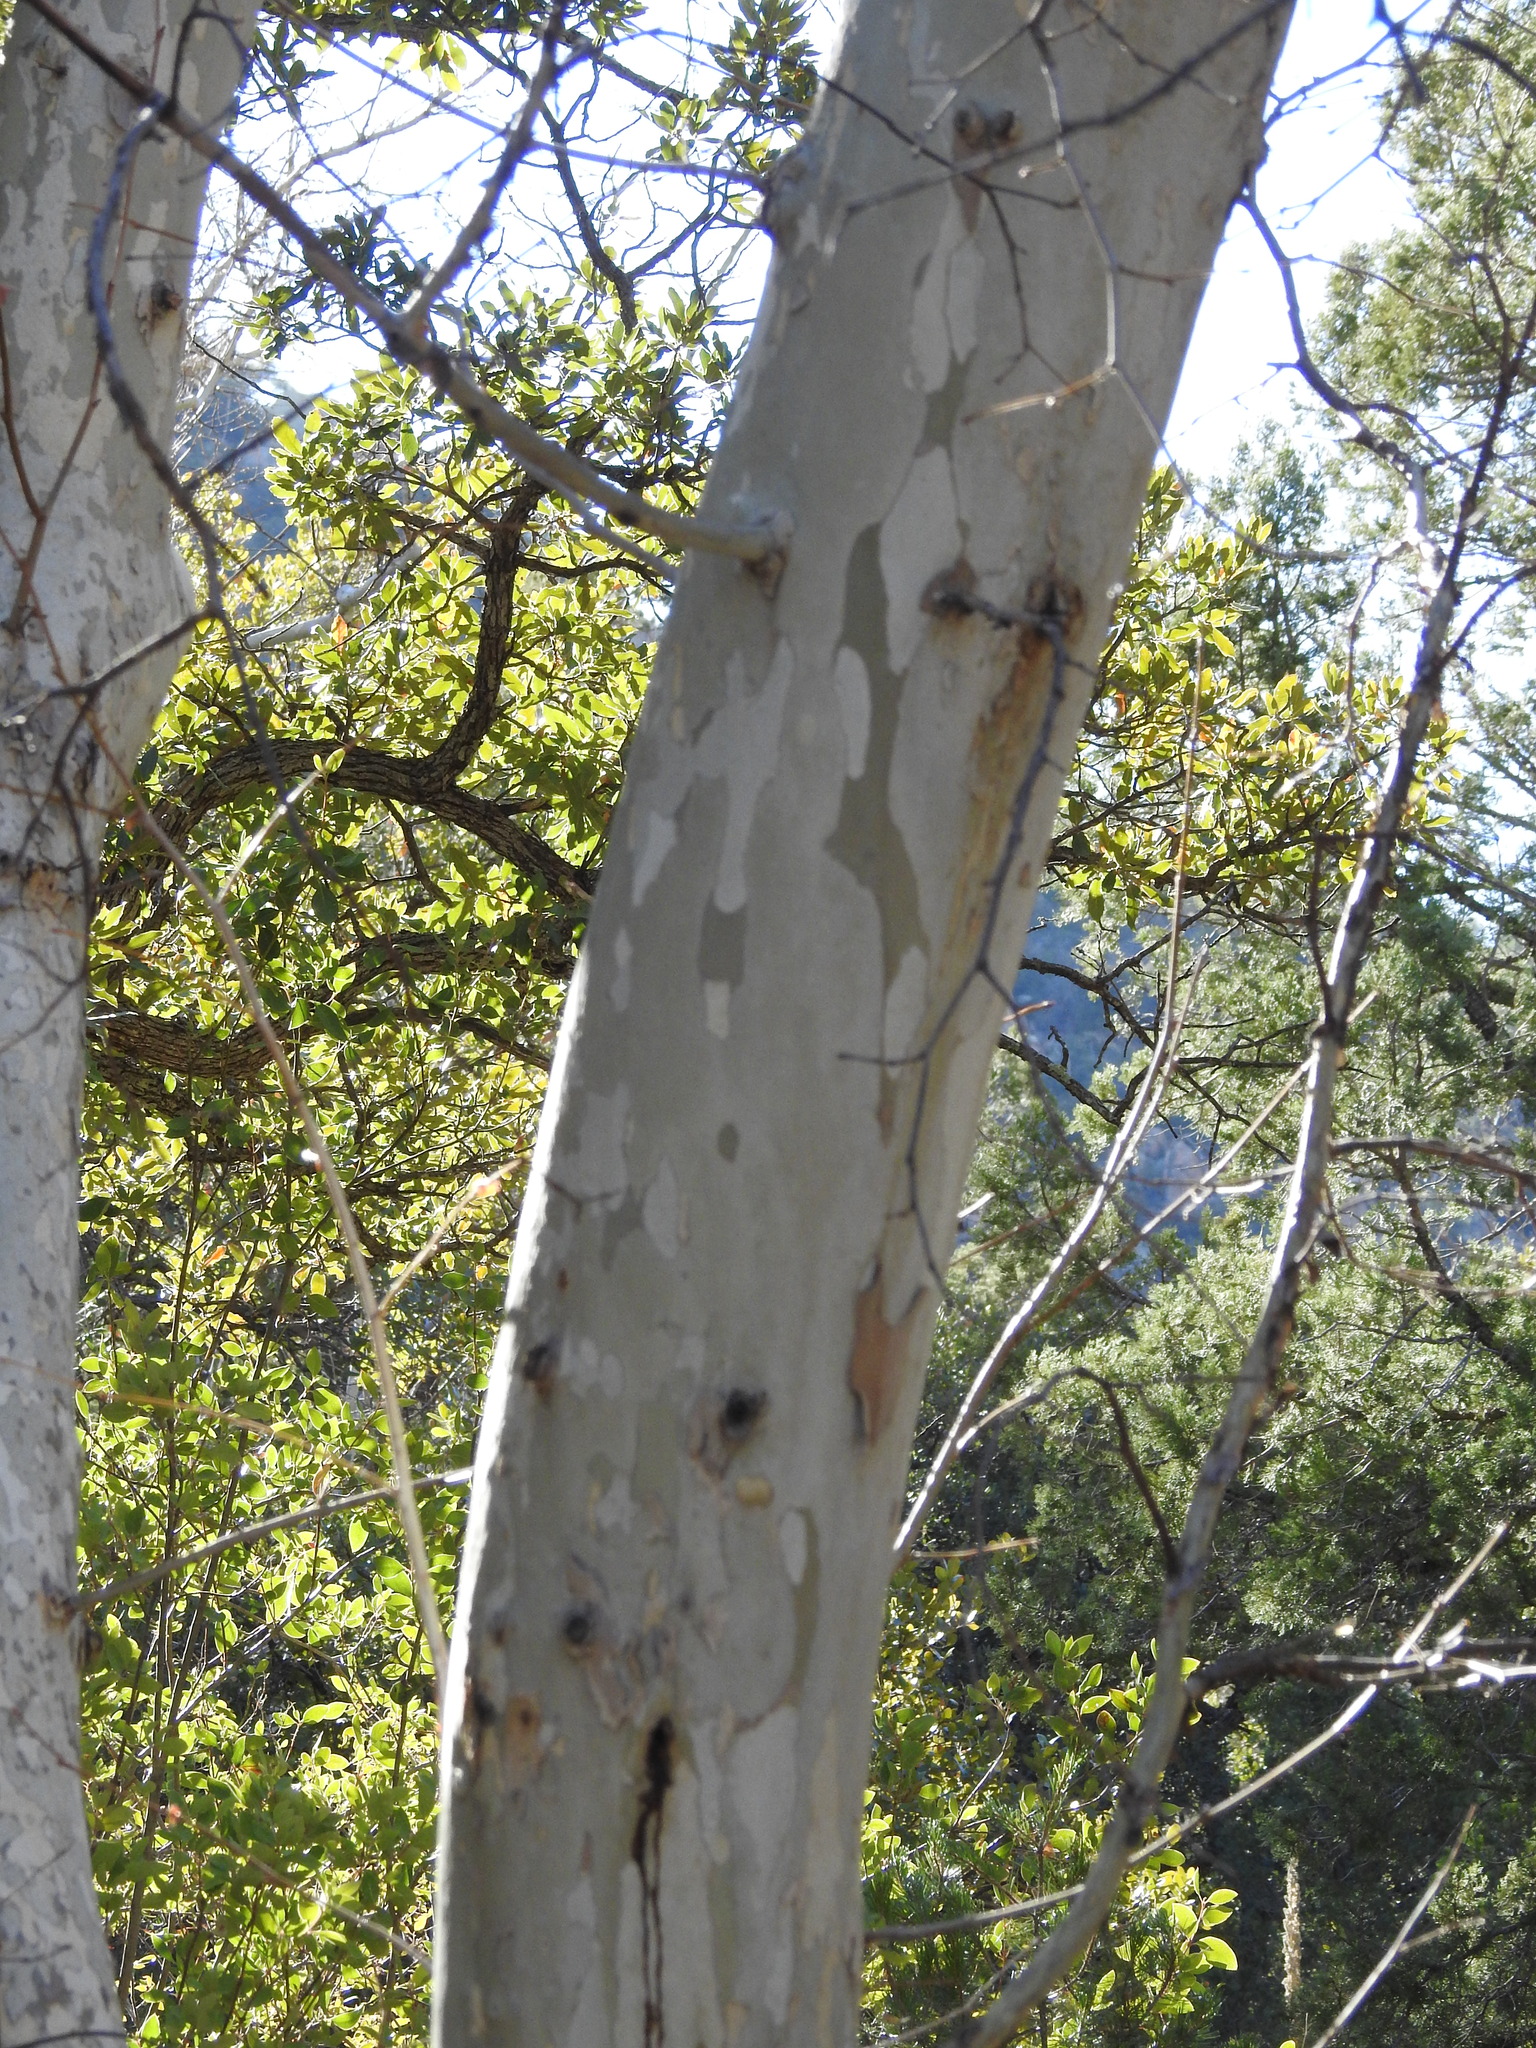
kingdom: Plantae
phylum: Tracheophyta
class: Magnoliopsida
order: Proteales
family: Platanaceae
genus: Platanus
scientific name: Platanus wrightii
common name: Arizona sycamore
